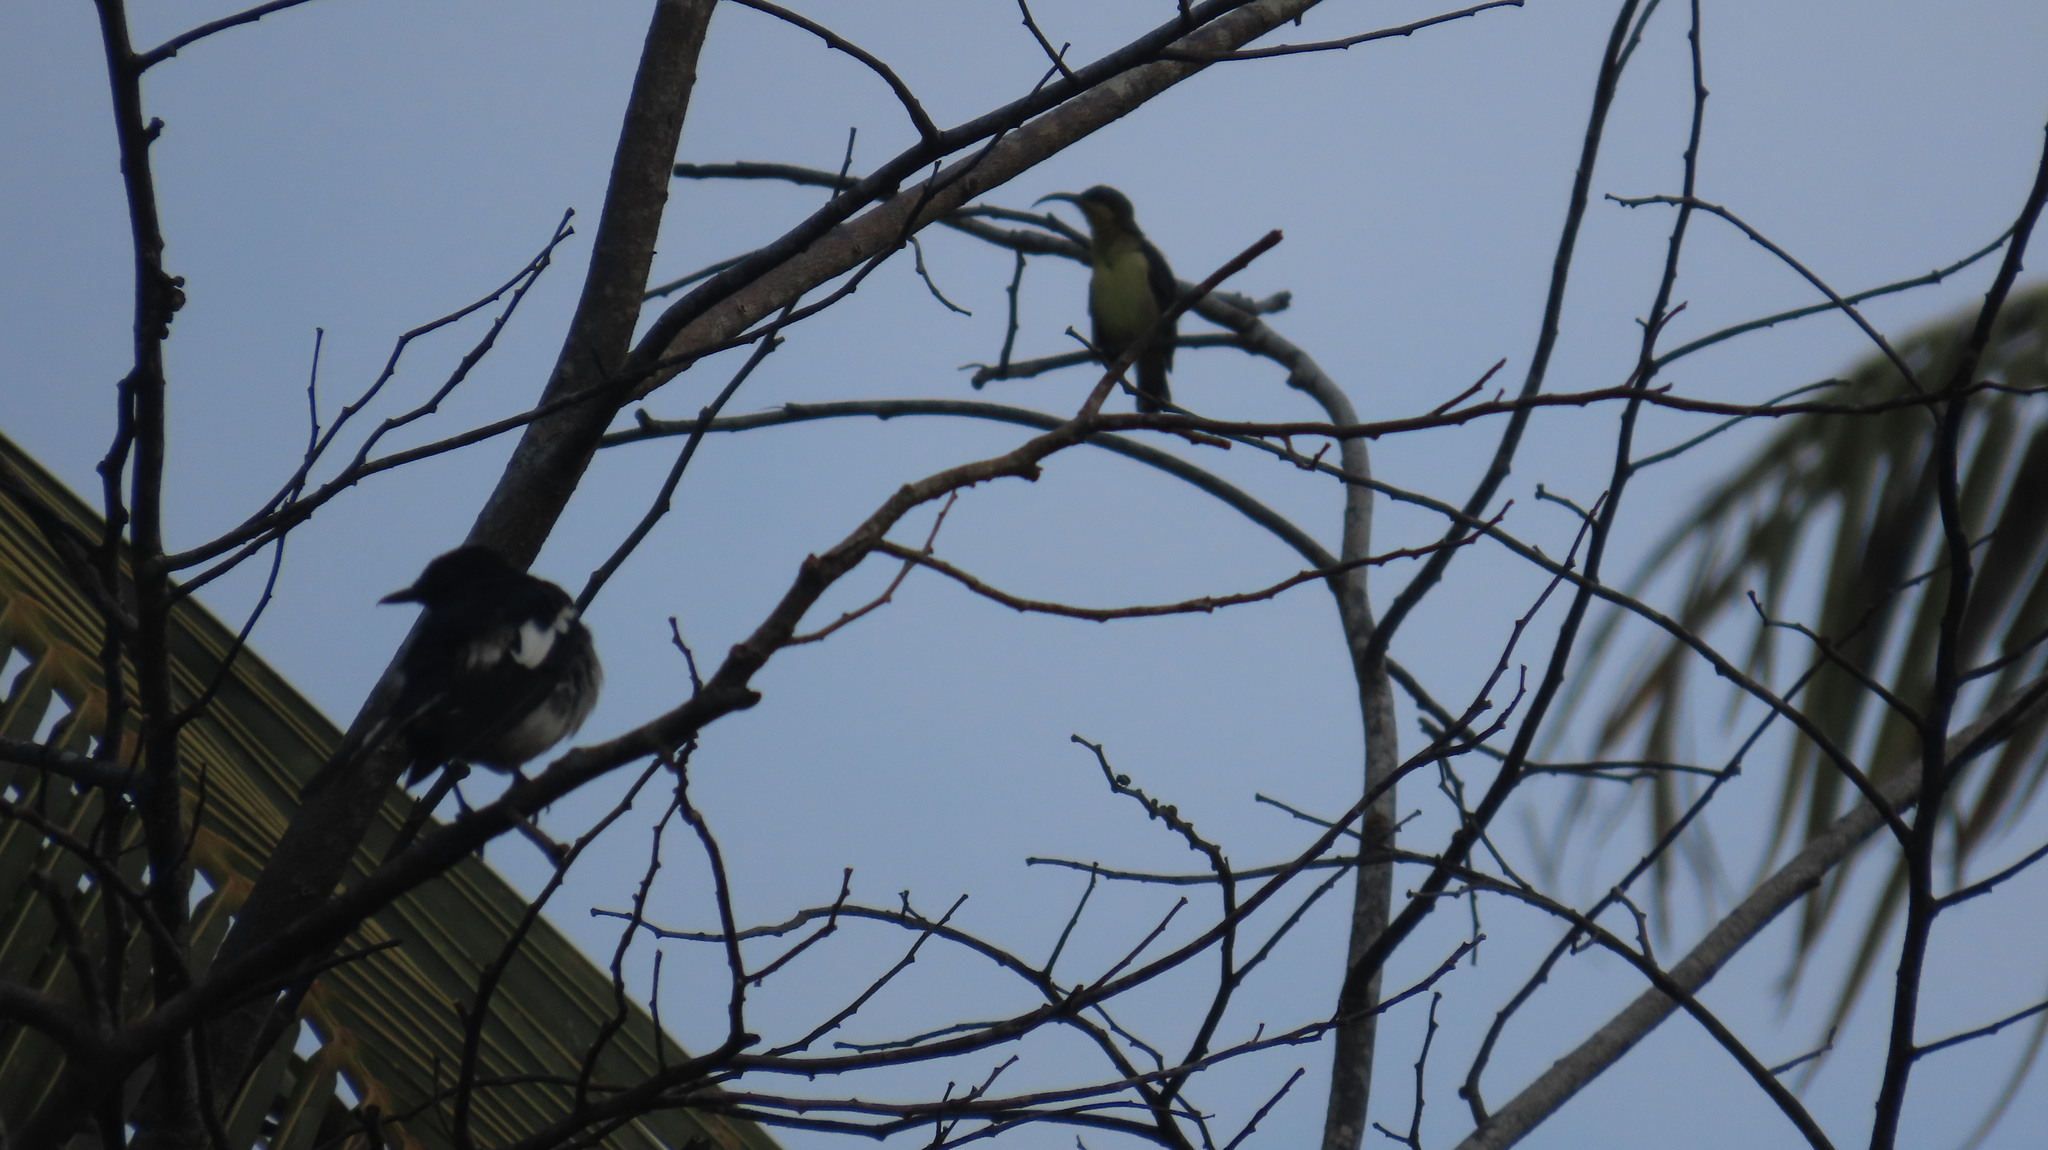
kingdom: Animalia
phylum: Chordata
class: Aves
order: Passeriformes
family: Muscicapidae
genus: Copsychus
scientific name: Copsychus saularis
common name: Oriental magpie-robin
